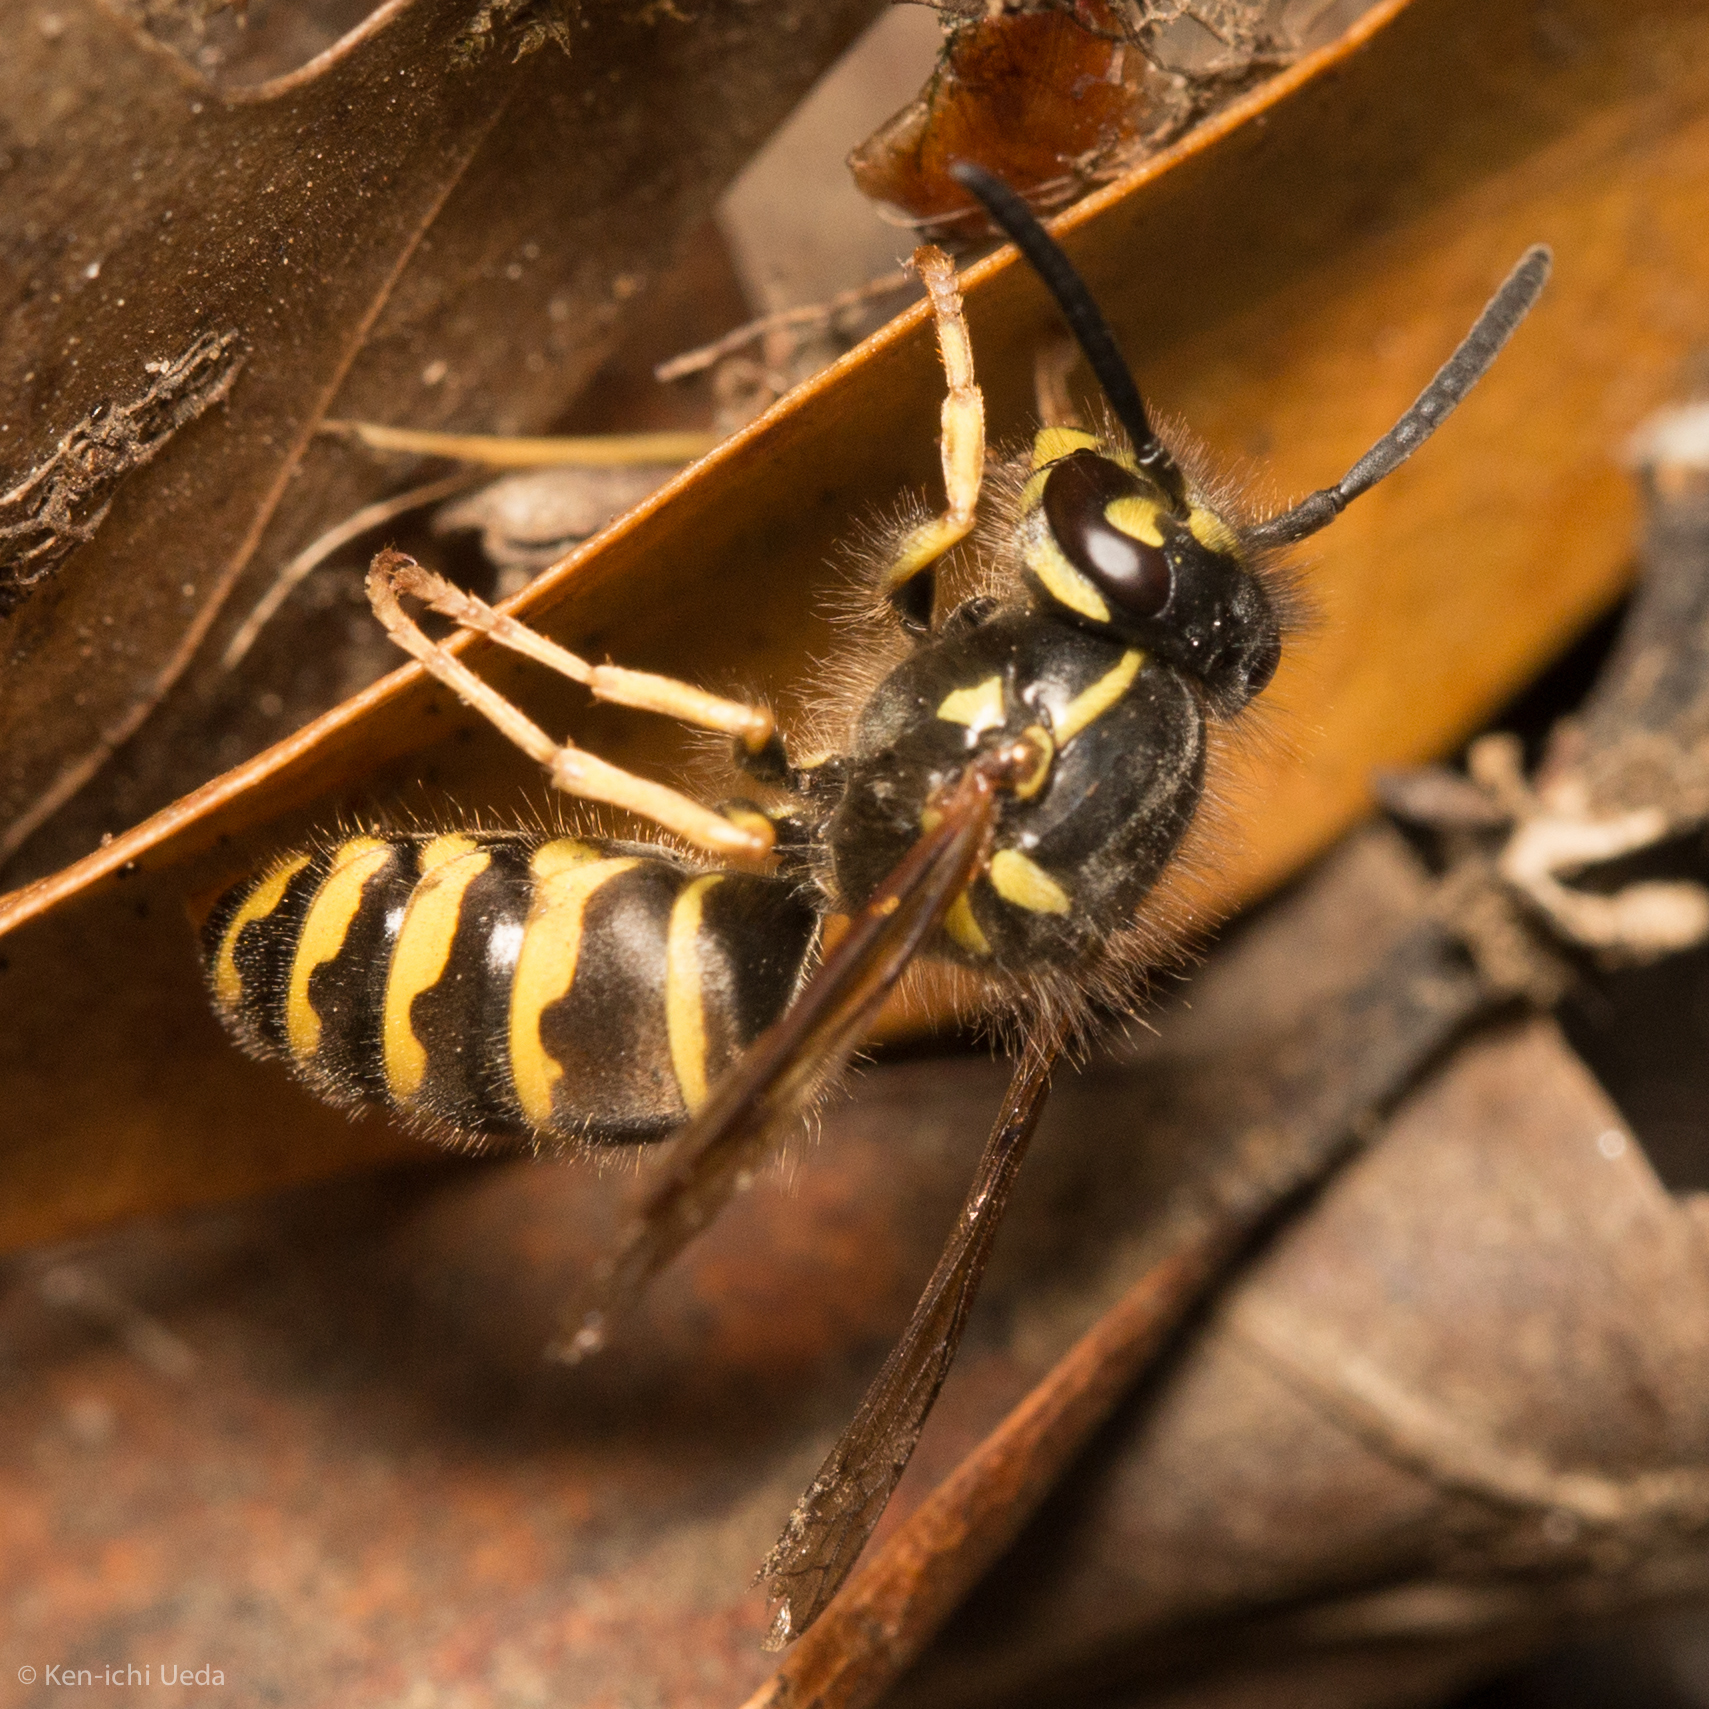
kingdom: Animalia
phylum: Arthropoda
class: Insecta
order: Hymenoptera
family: Vespidae
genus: Vespula
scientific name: Vespula alascensis
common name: Alaska yellowjacket
